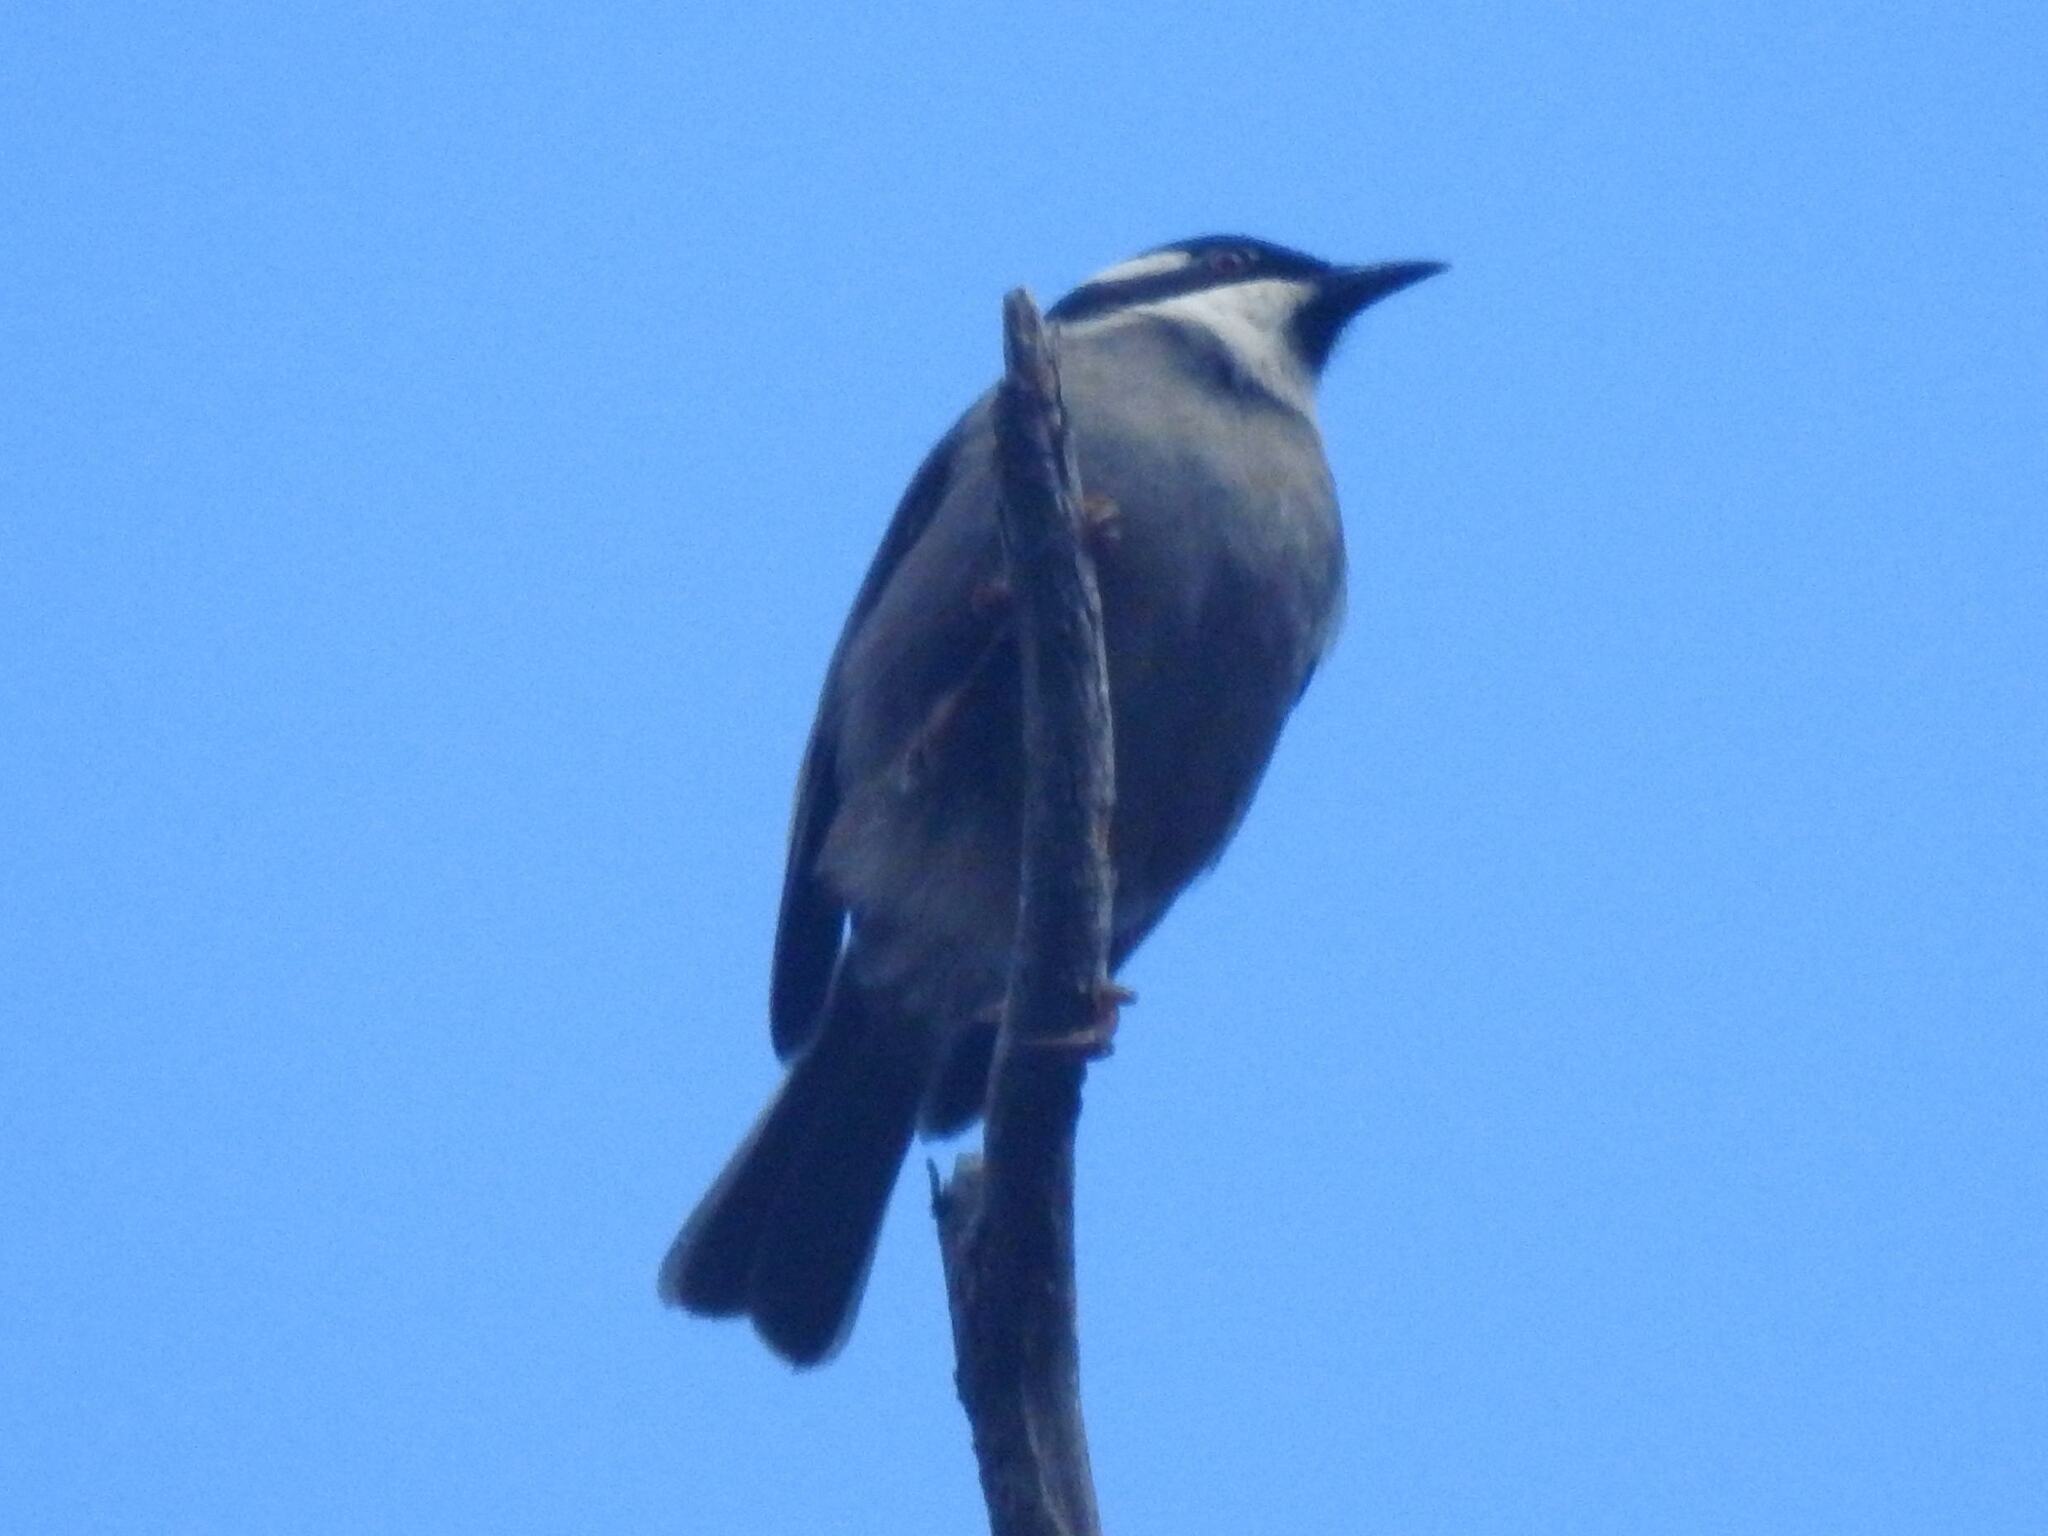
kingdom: Animalia
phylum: Chordata
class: Aves
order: Passeriformes
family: Meliphagidae
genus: Melithreptus
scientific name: Melithreptus validirostris
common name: Strong-billed honeyeater
